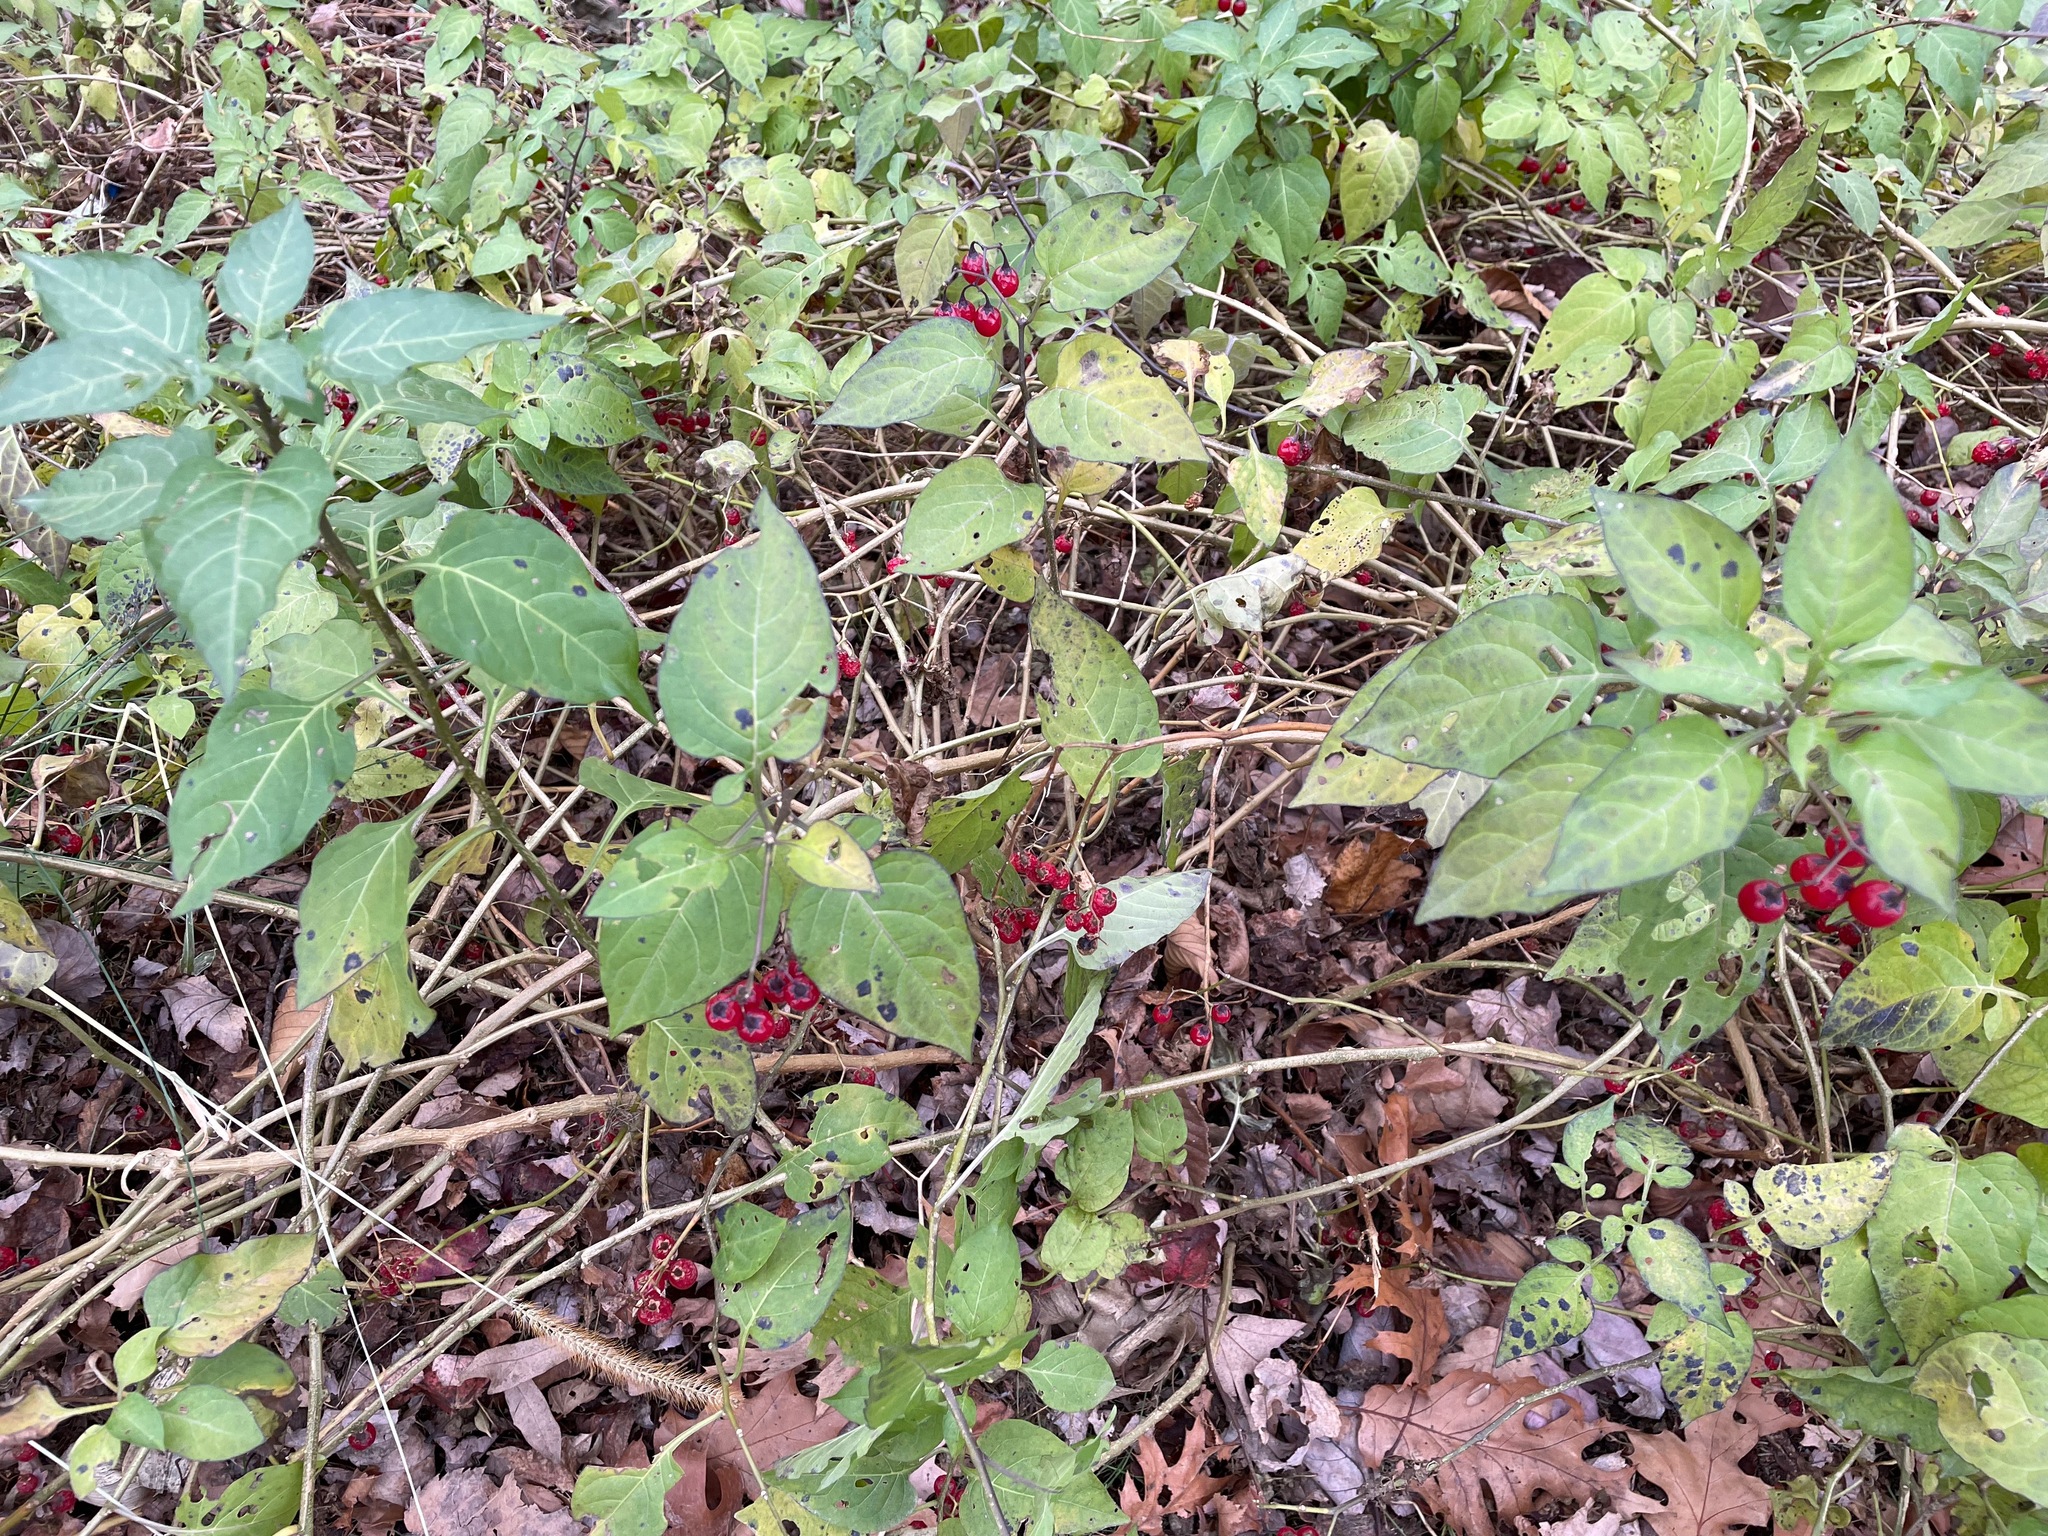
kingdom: Plantae
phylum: Tracheophyta
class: Magnoliopsida
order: Solanales
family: Solanaceae
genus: Solanum
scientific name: Solanum dulcamara
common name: Climbing nightshade
